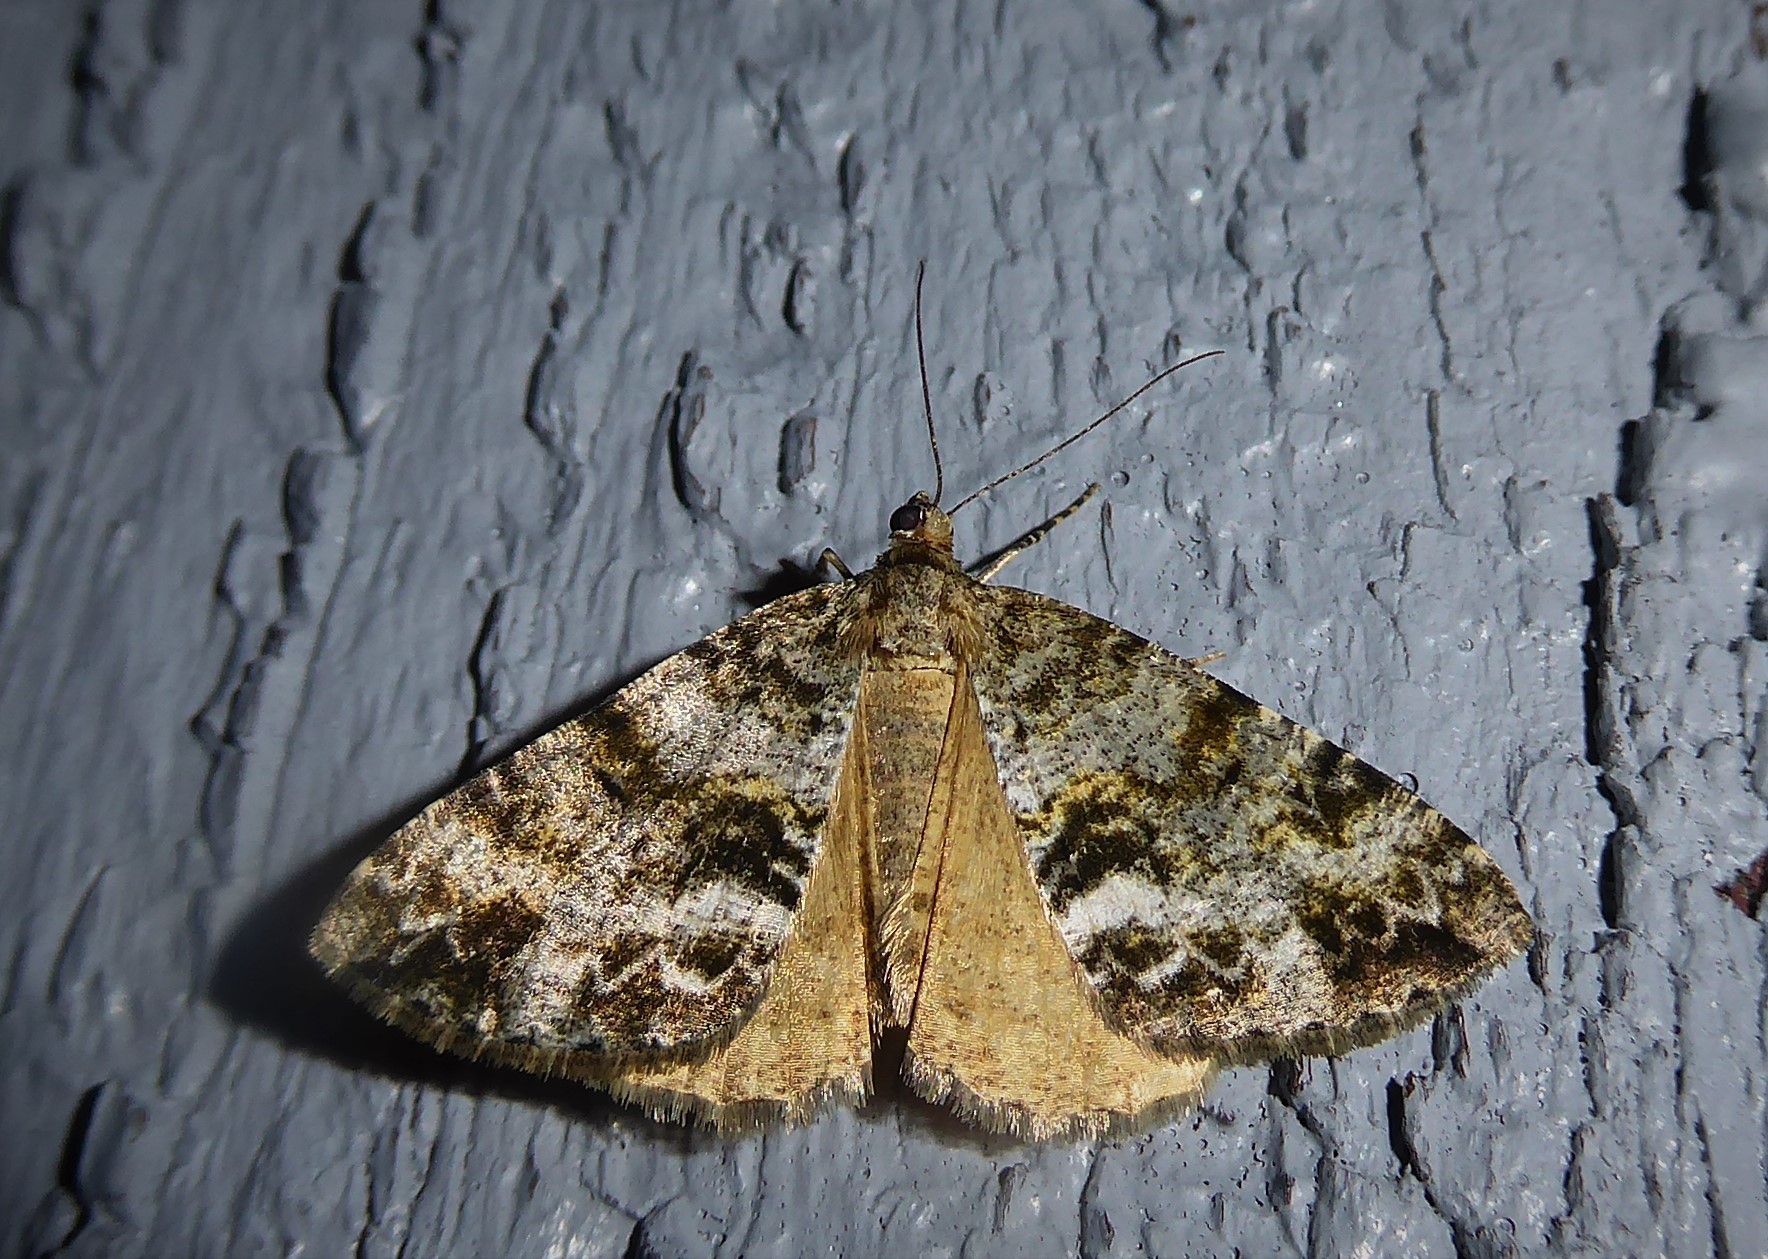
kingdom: Animalia
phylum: Arthropoda
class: Insecta
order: Lepidoptera
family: Geometridae
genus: Pseudocoremia
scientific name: Pseudocoremia lactiflua
